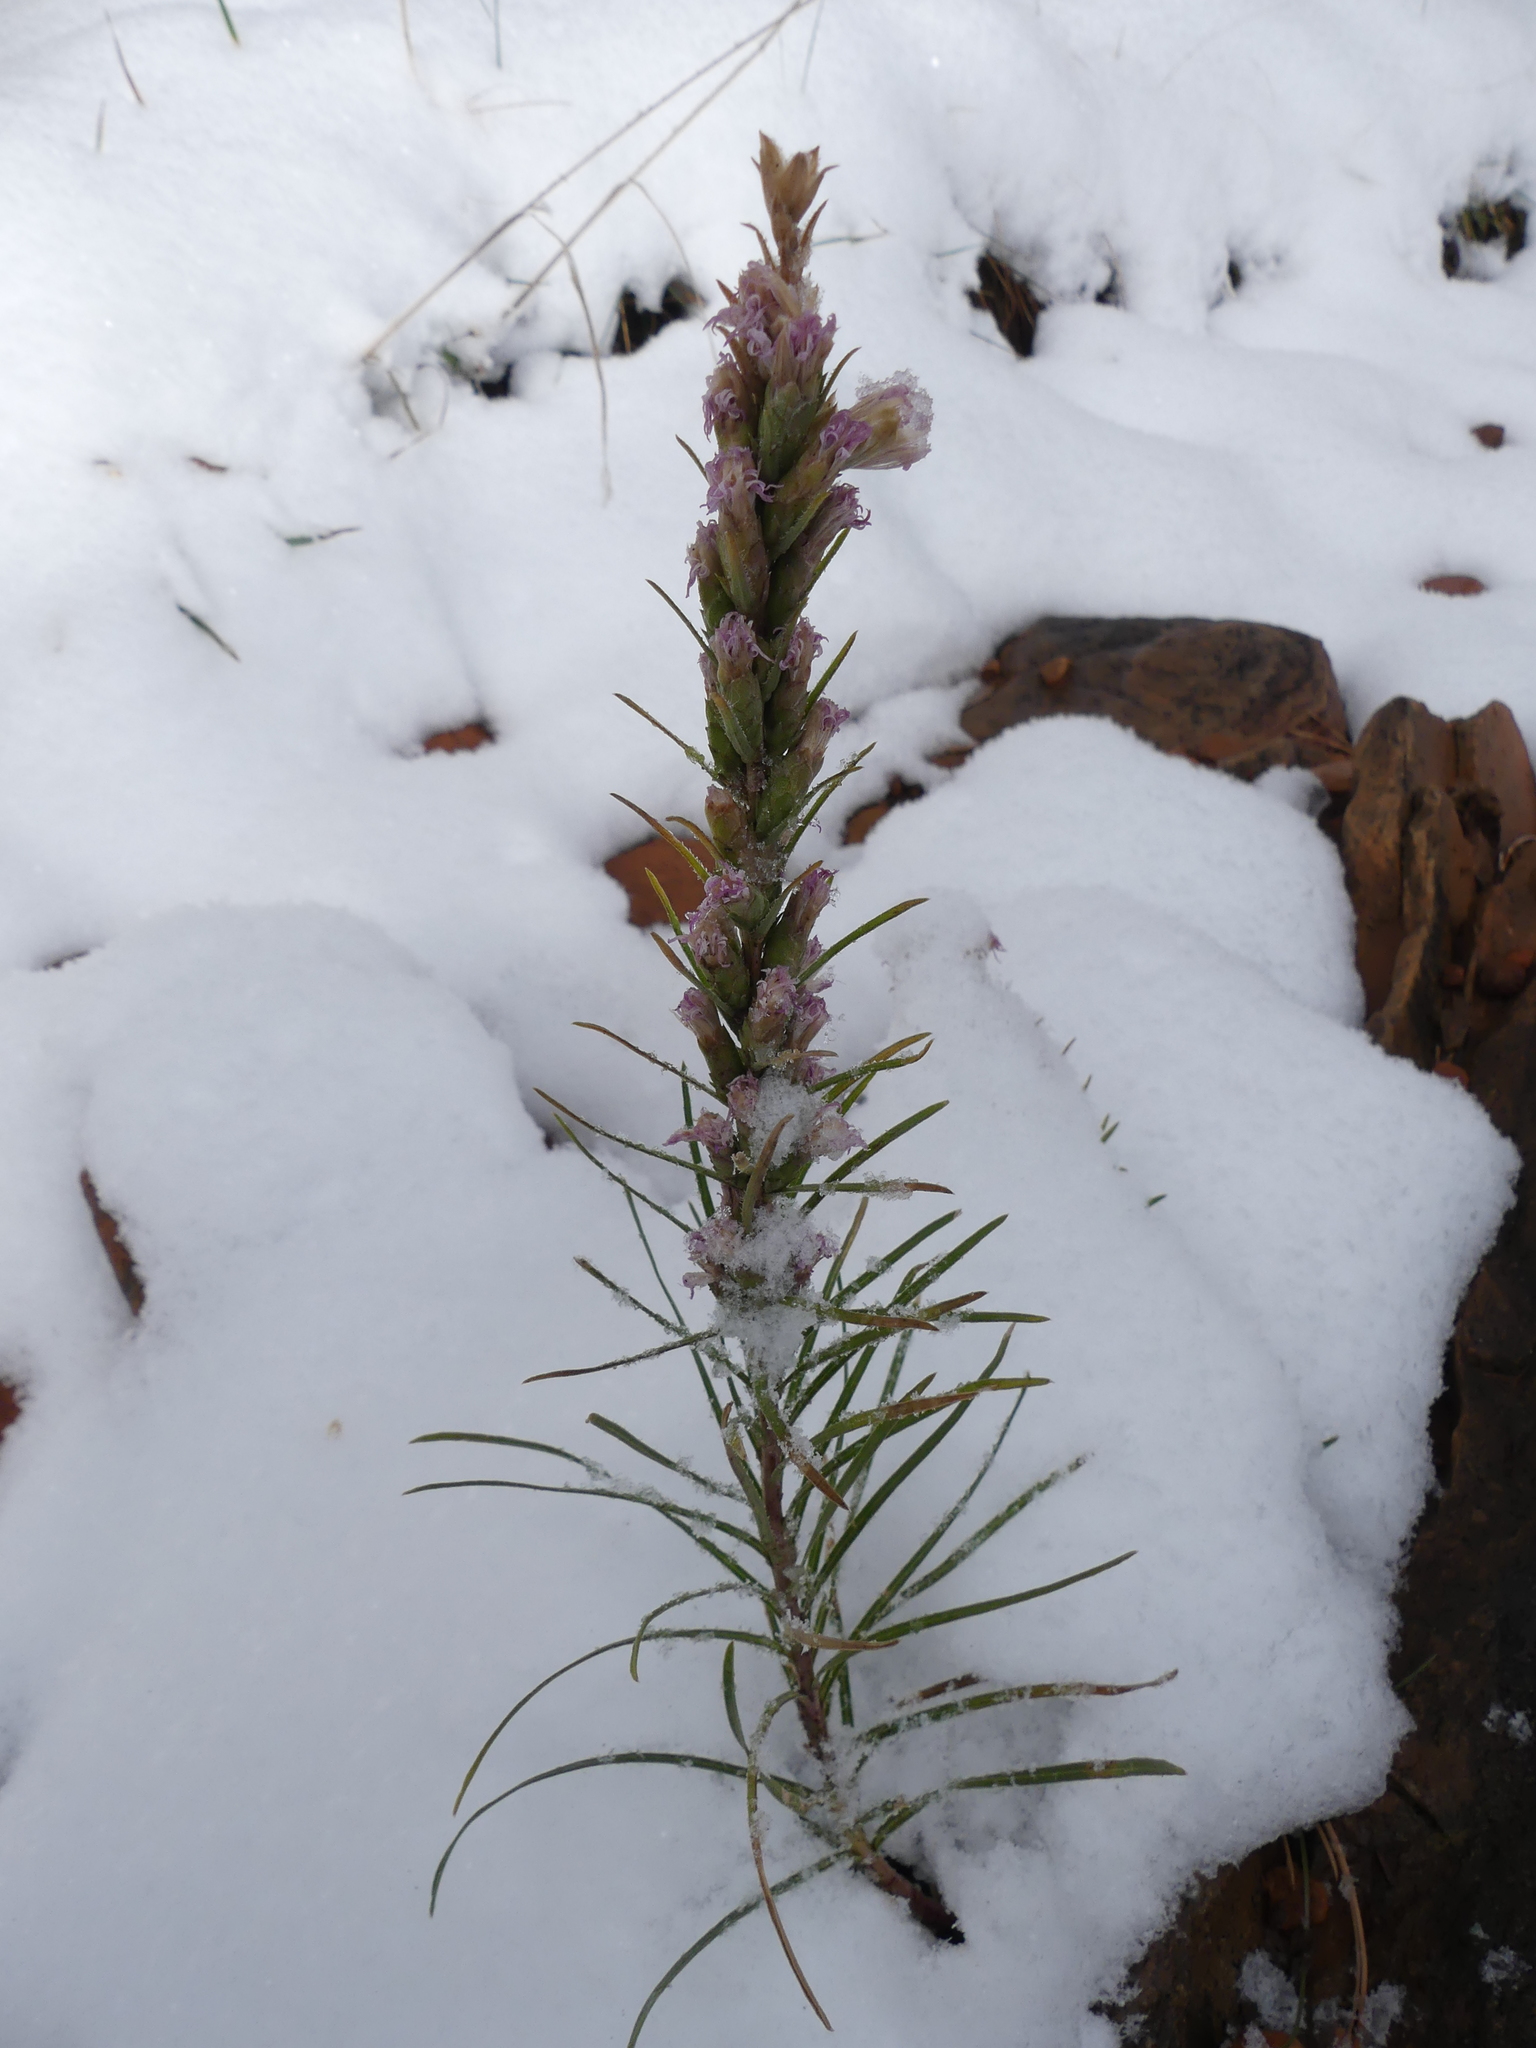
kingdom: Plantae
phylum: Tracheophyta
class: Magnoliopsida
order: Asterales
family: Asteraceae
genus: Liatris
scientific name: Liatris punctata
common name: Dotted gayfeather
